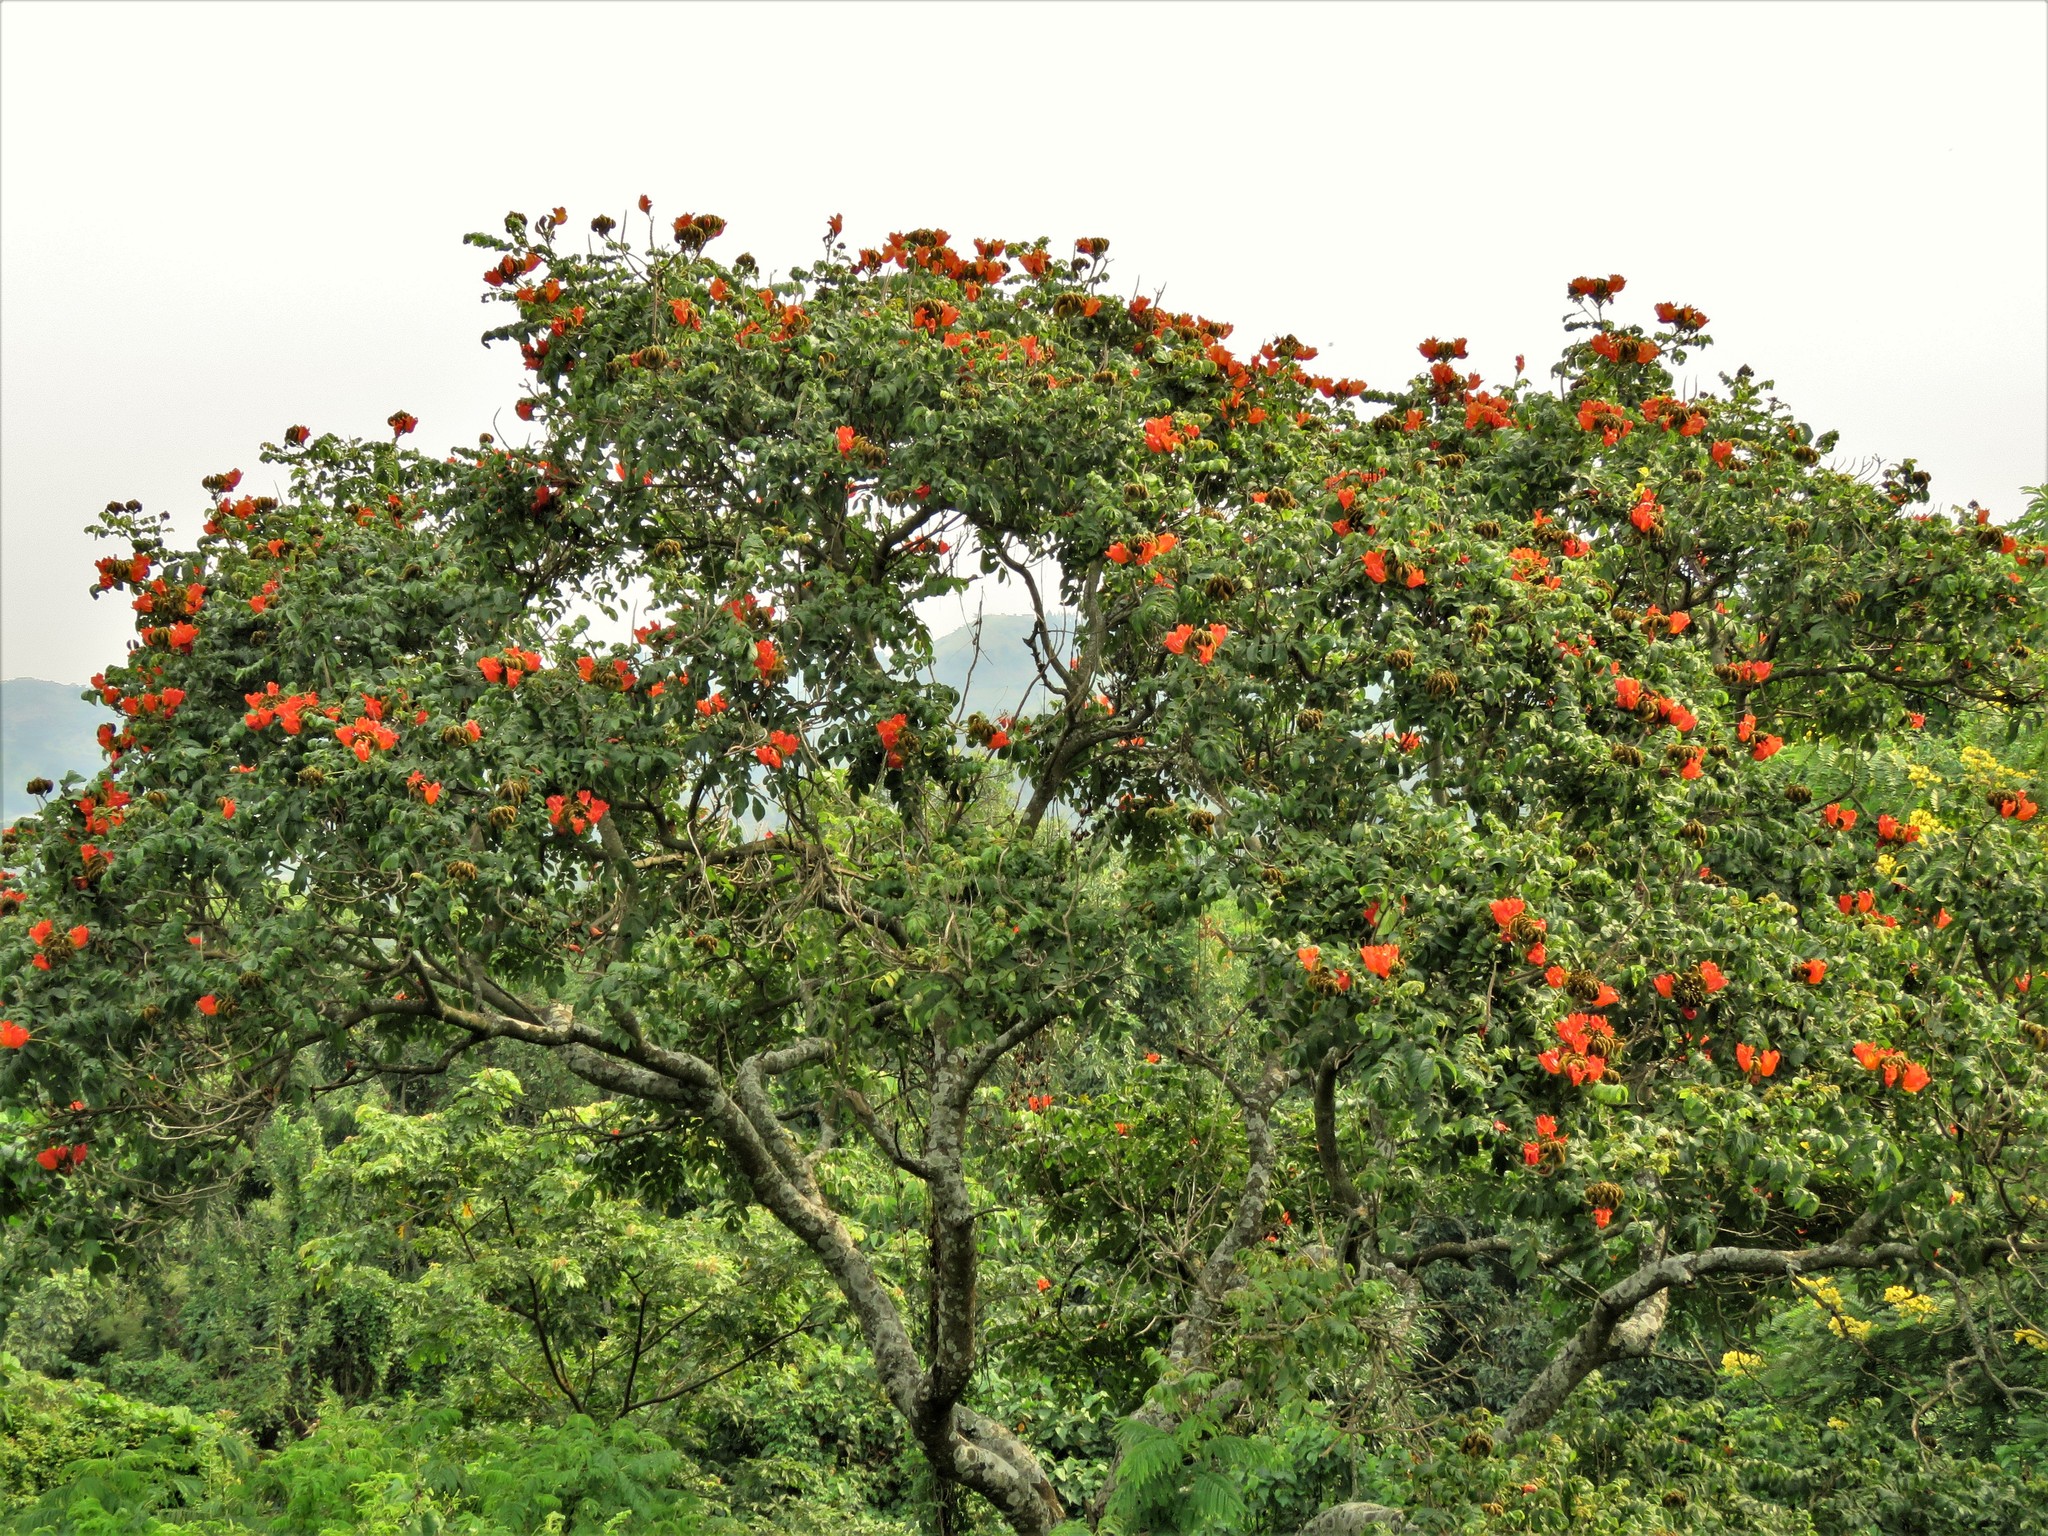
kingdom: Plantae
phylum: Tracheophyta
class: Magnoliopsida
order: Lamiales
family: Bignoniaceae
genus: Spathodea
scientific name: Spathodea campanulata
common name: African tuliptree
